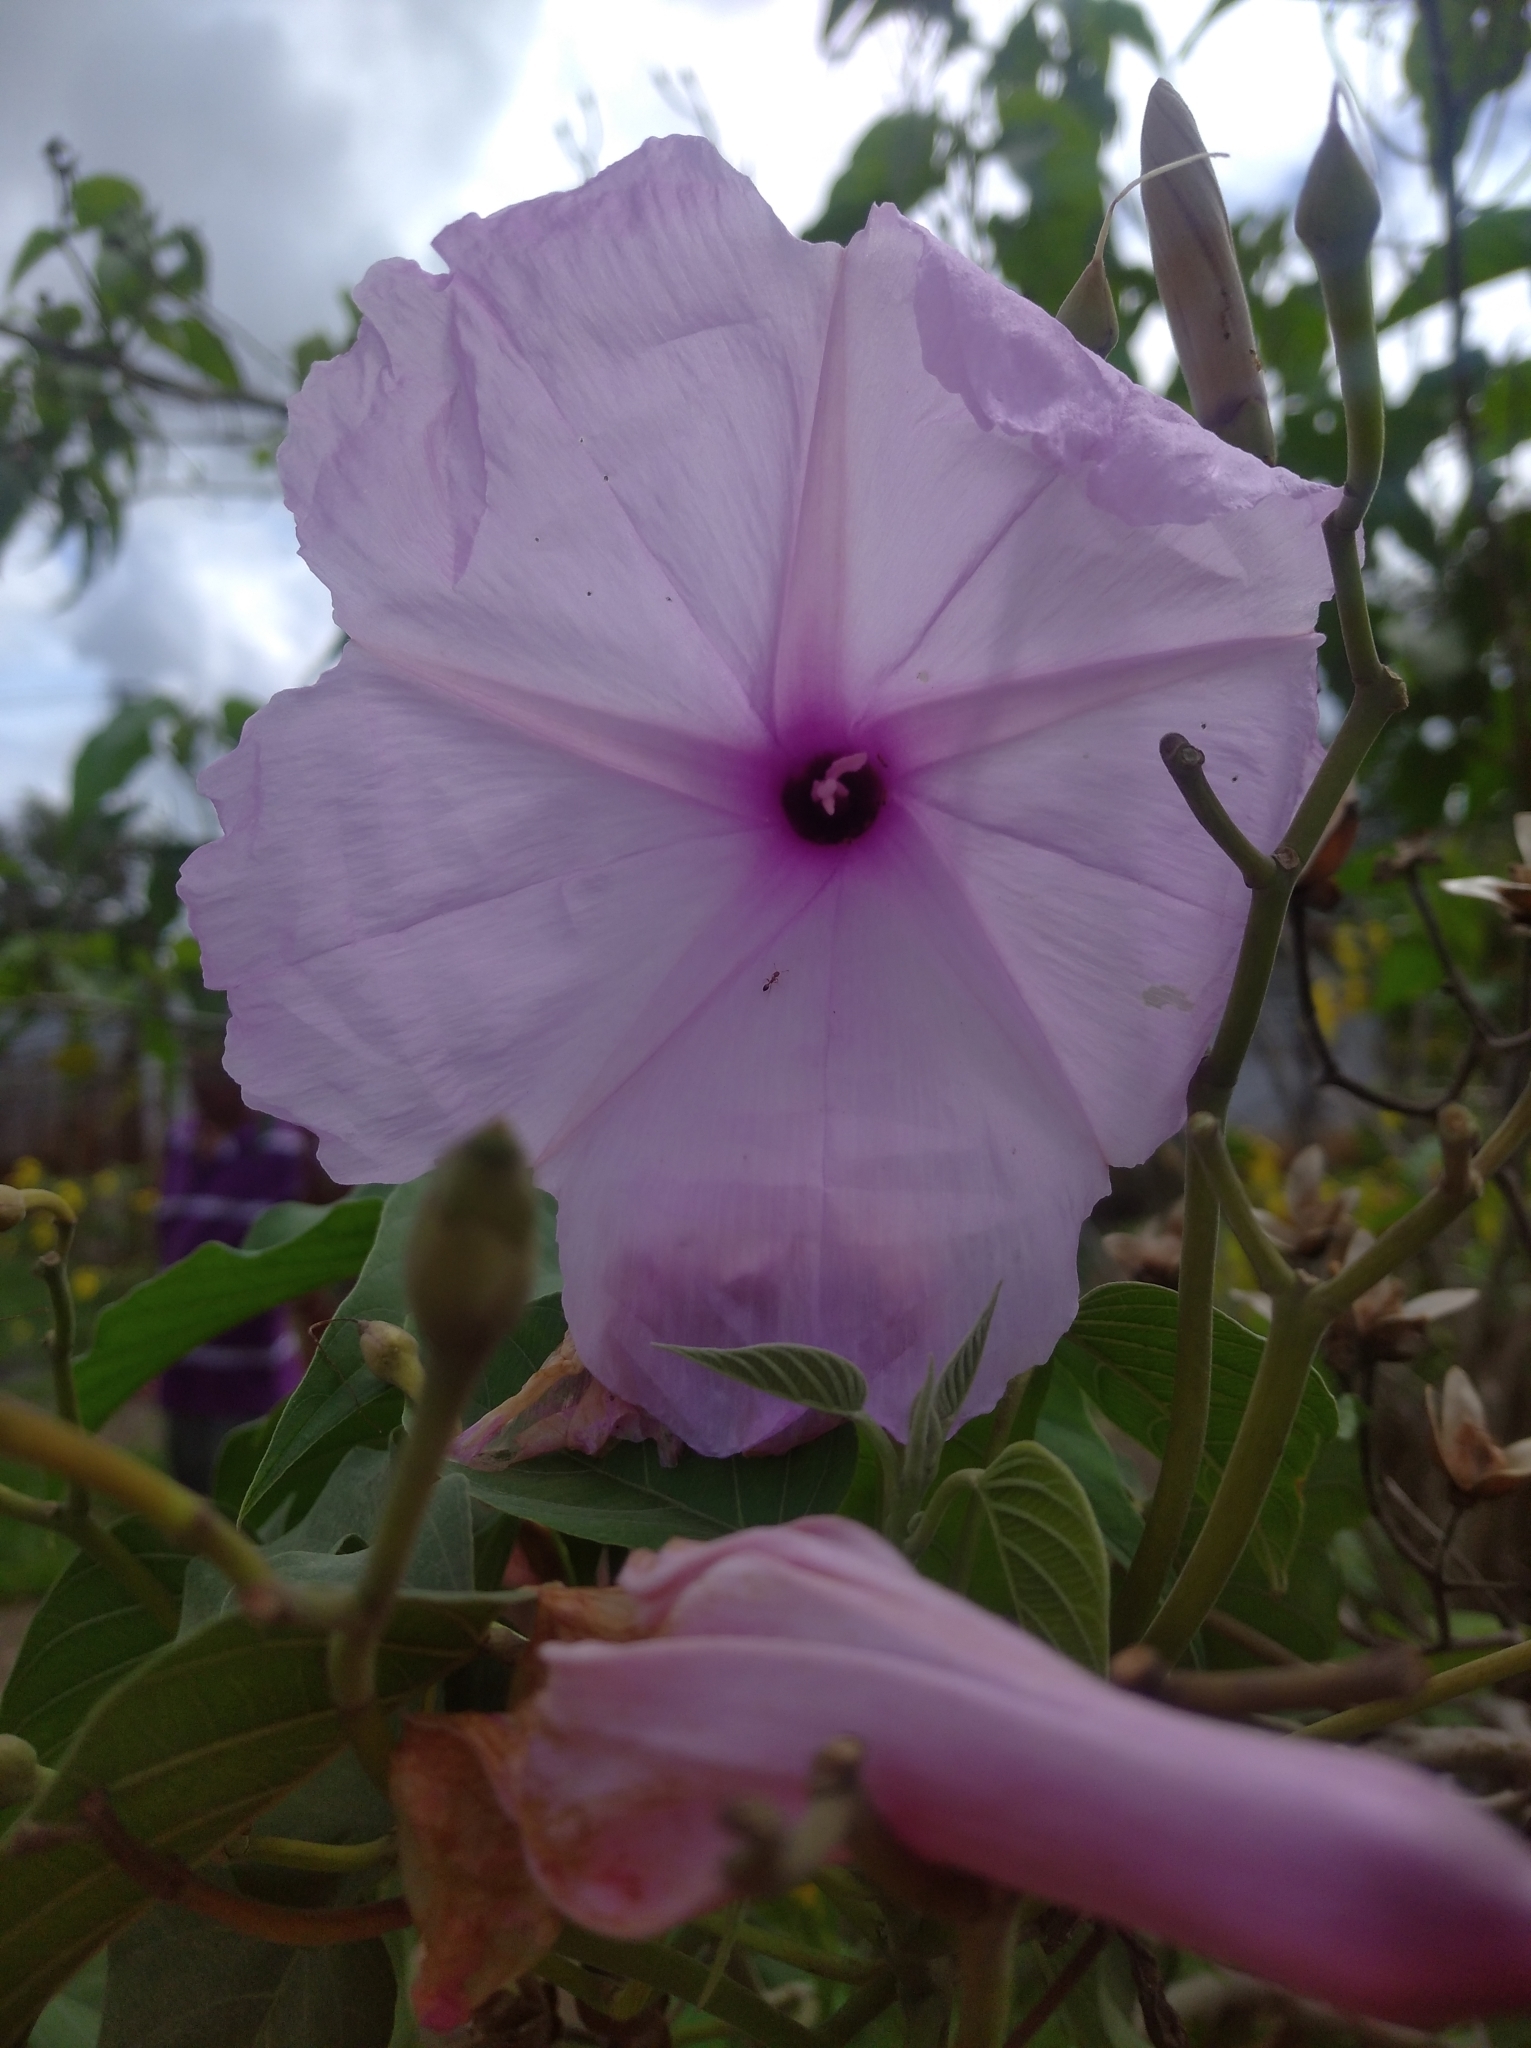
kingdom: Plantae
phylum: Tracheophyta
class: Magnoliopsida
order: Solanales
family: Convolvulaceae
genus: Ipomoea
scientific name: Ipomoea carnea
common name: Morning-glory
